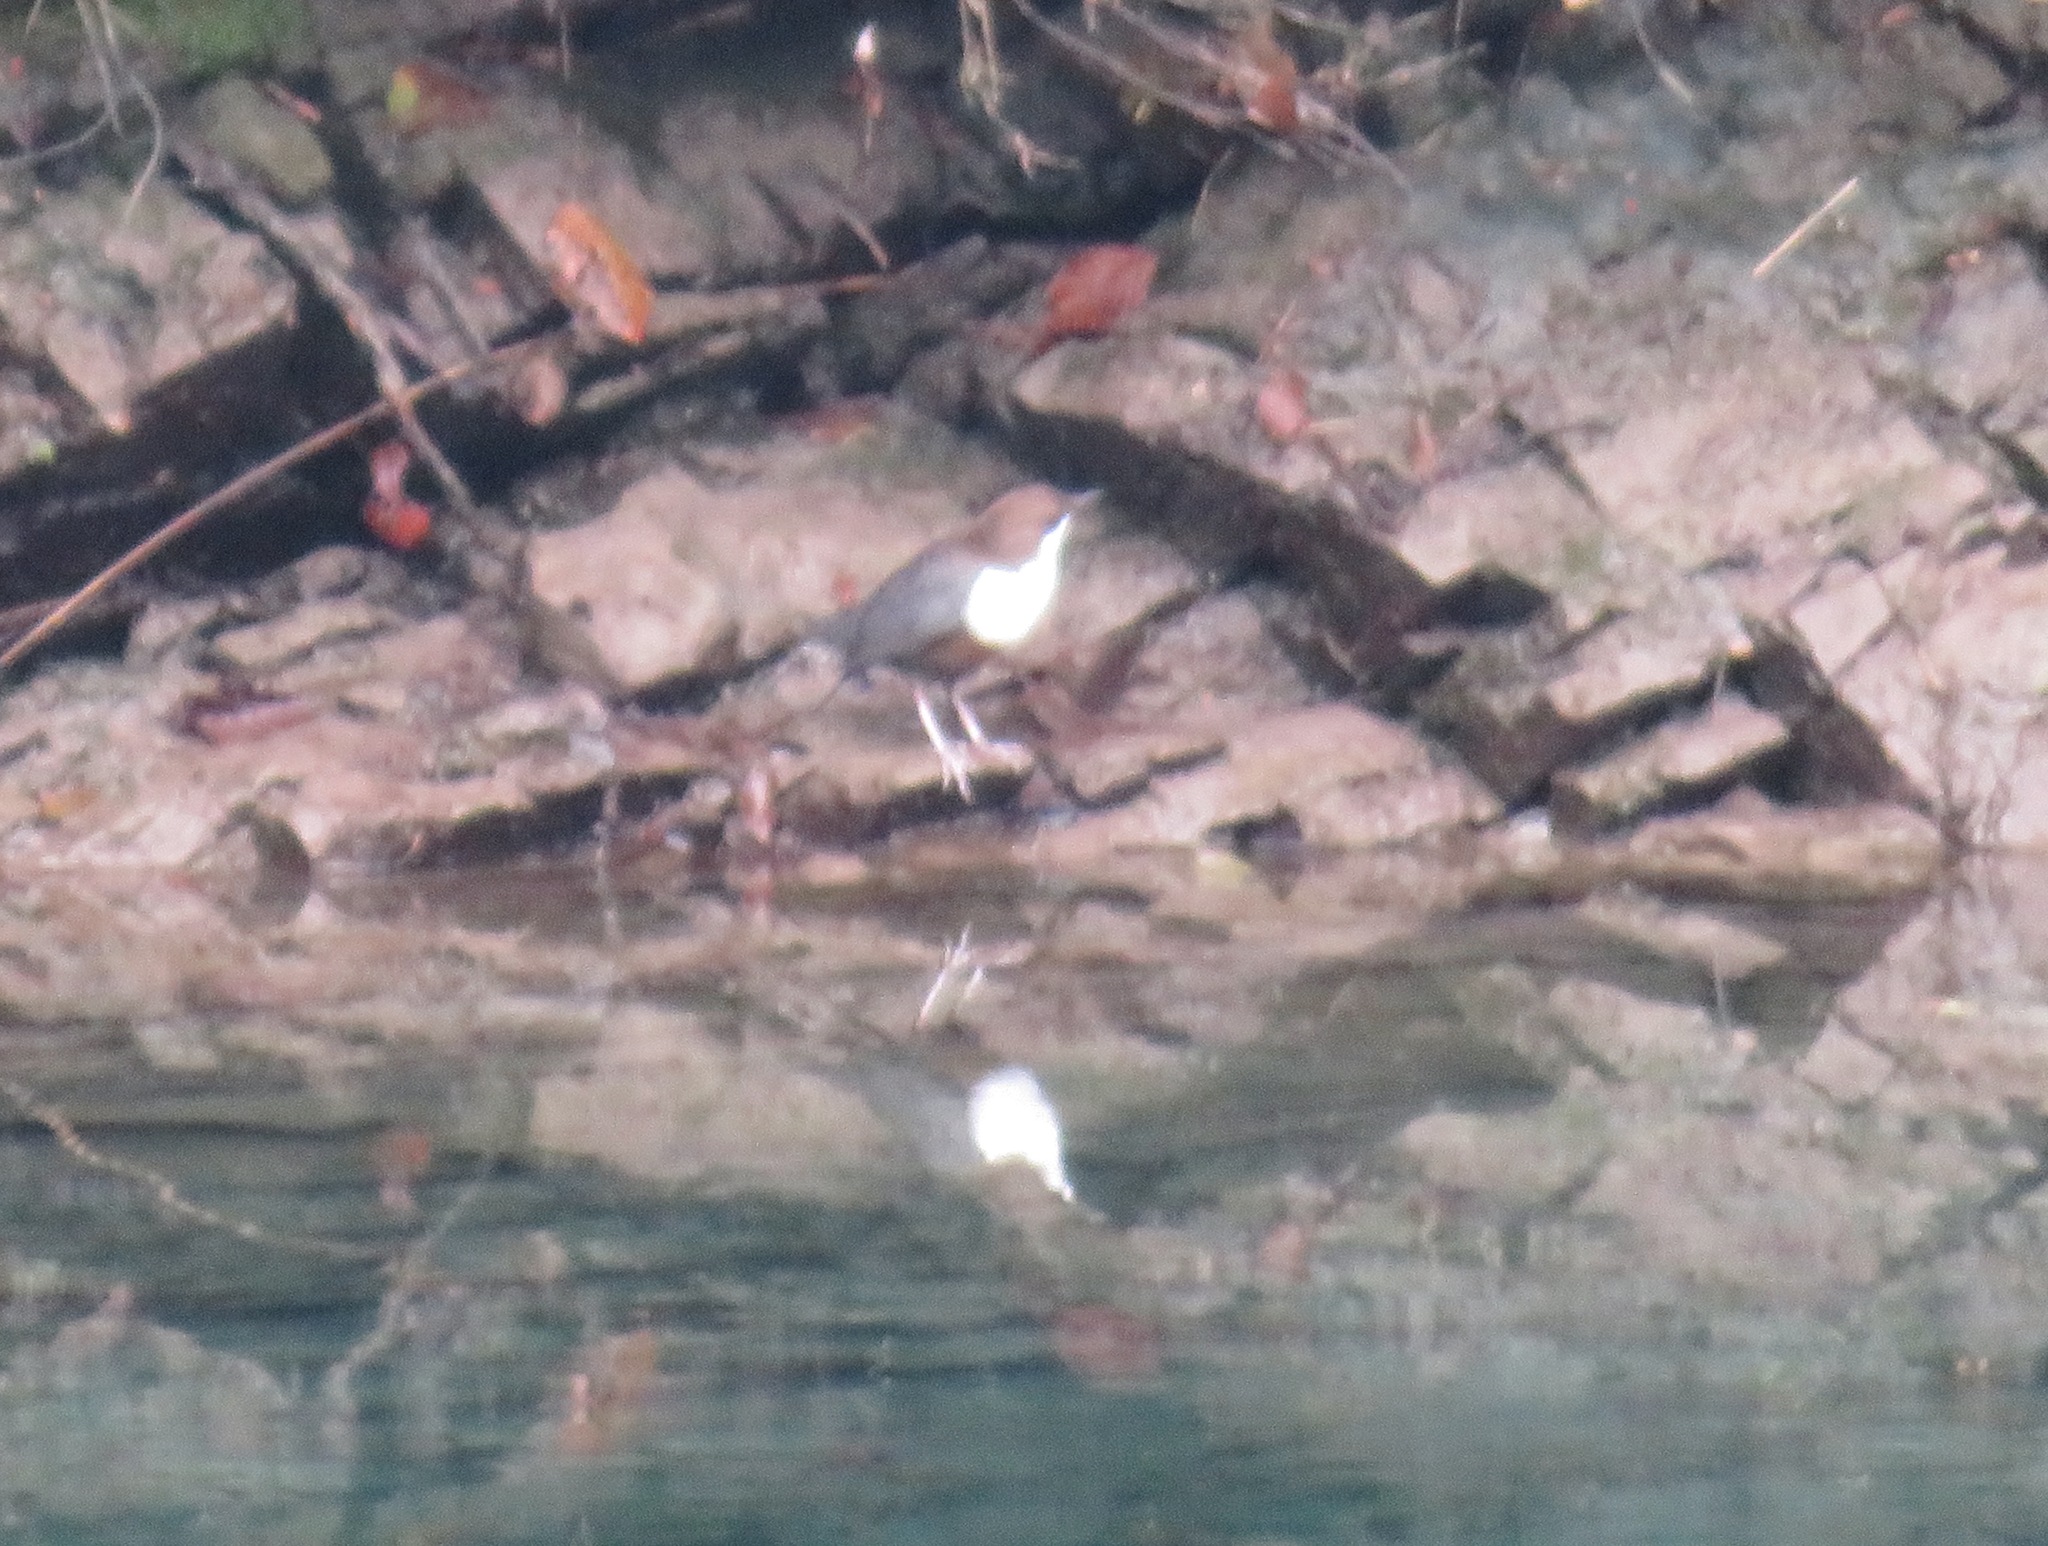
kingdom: Animalia
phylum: Chordata
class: Aves
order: Passeriformes
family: Cinclidae
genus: Cinclus
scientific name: Cinclus cinclus
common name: White-throated dipper
